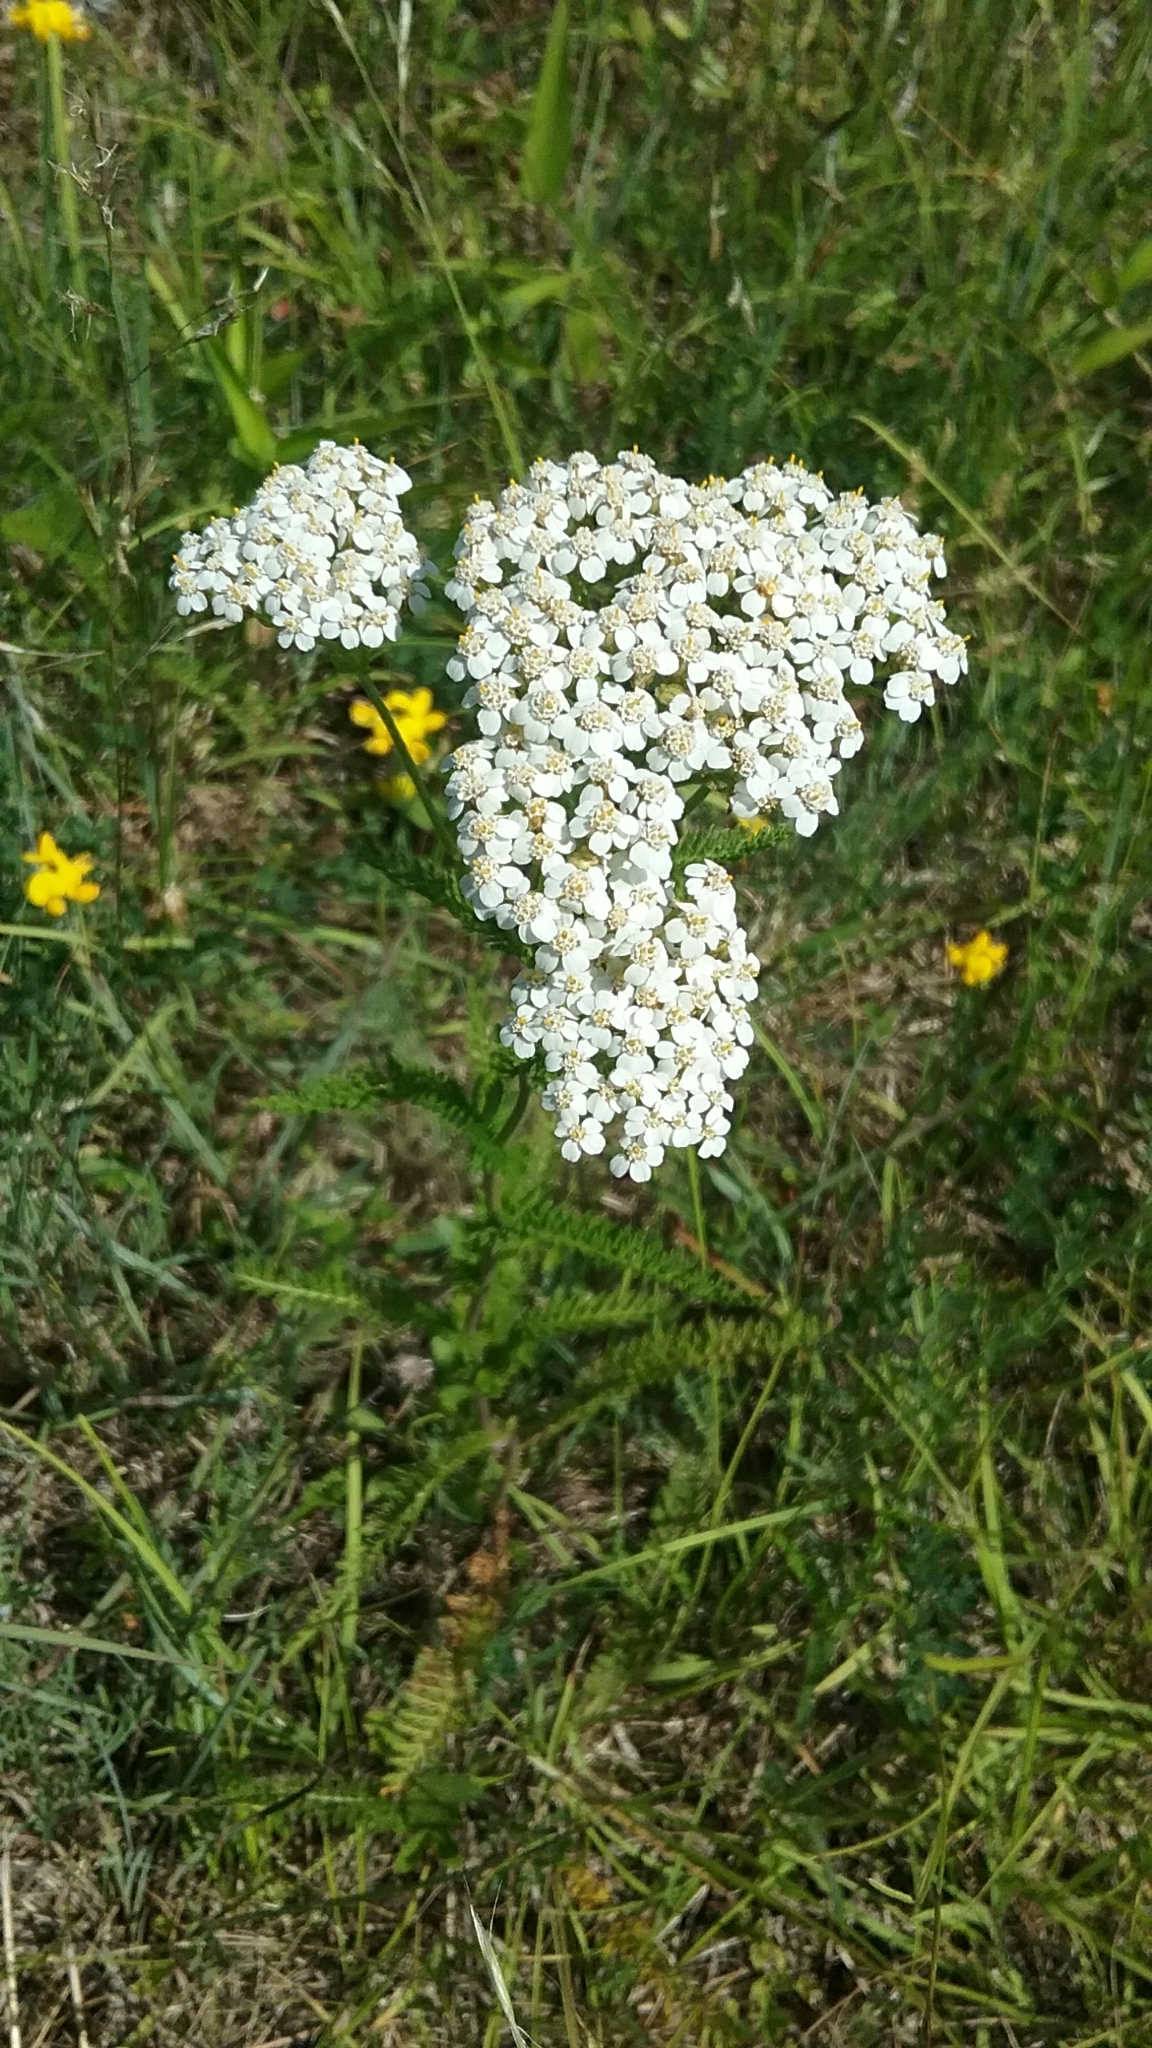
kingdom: Plantae
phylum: Tracheophyta
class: Magnoliopsida
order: Asterales
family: Asteraceae
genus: Achillea
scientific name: Achillea millefolium
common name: Yarrow
